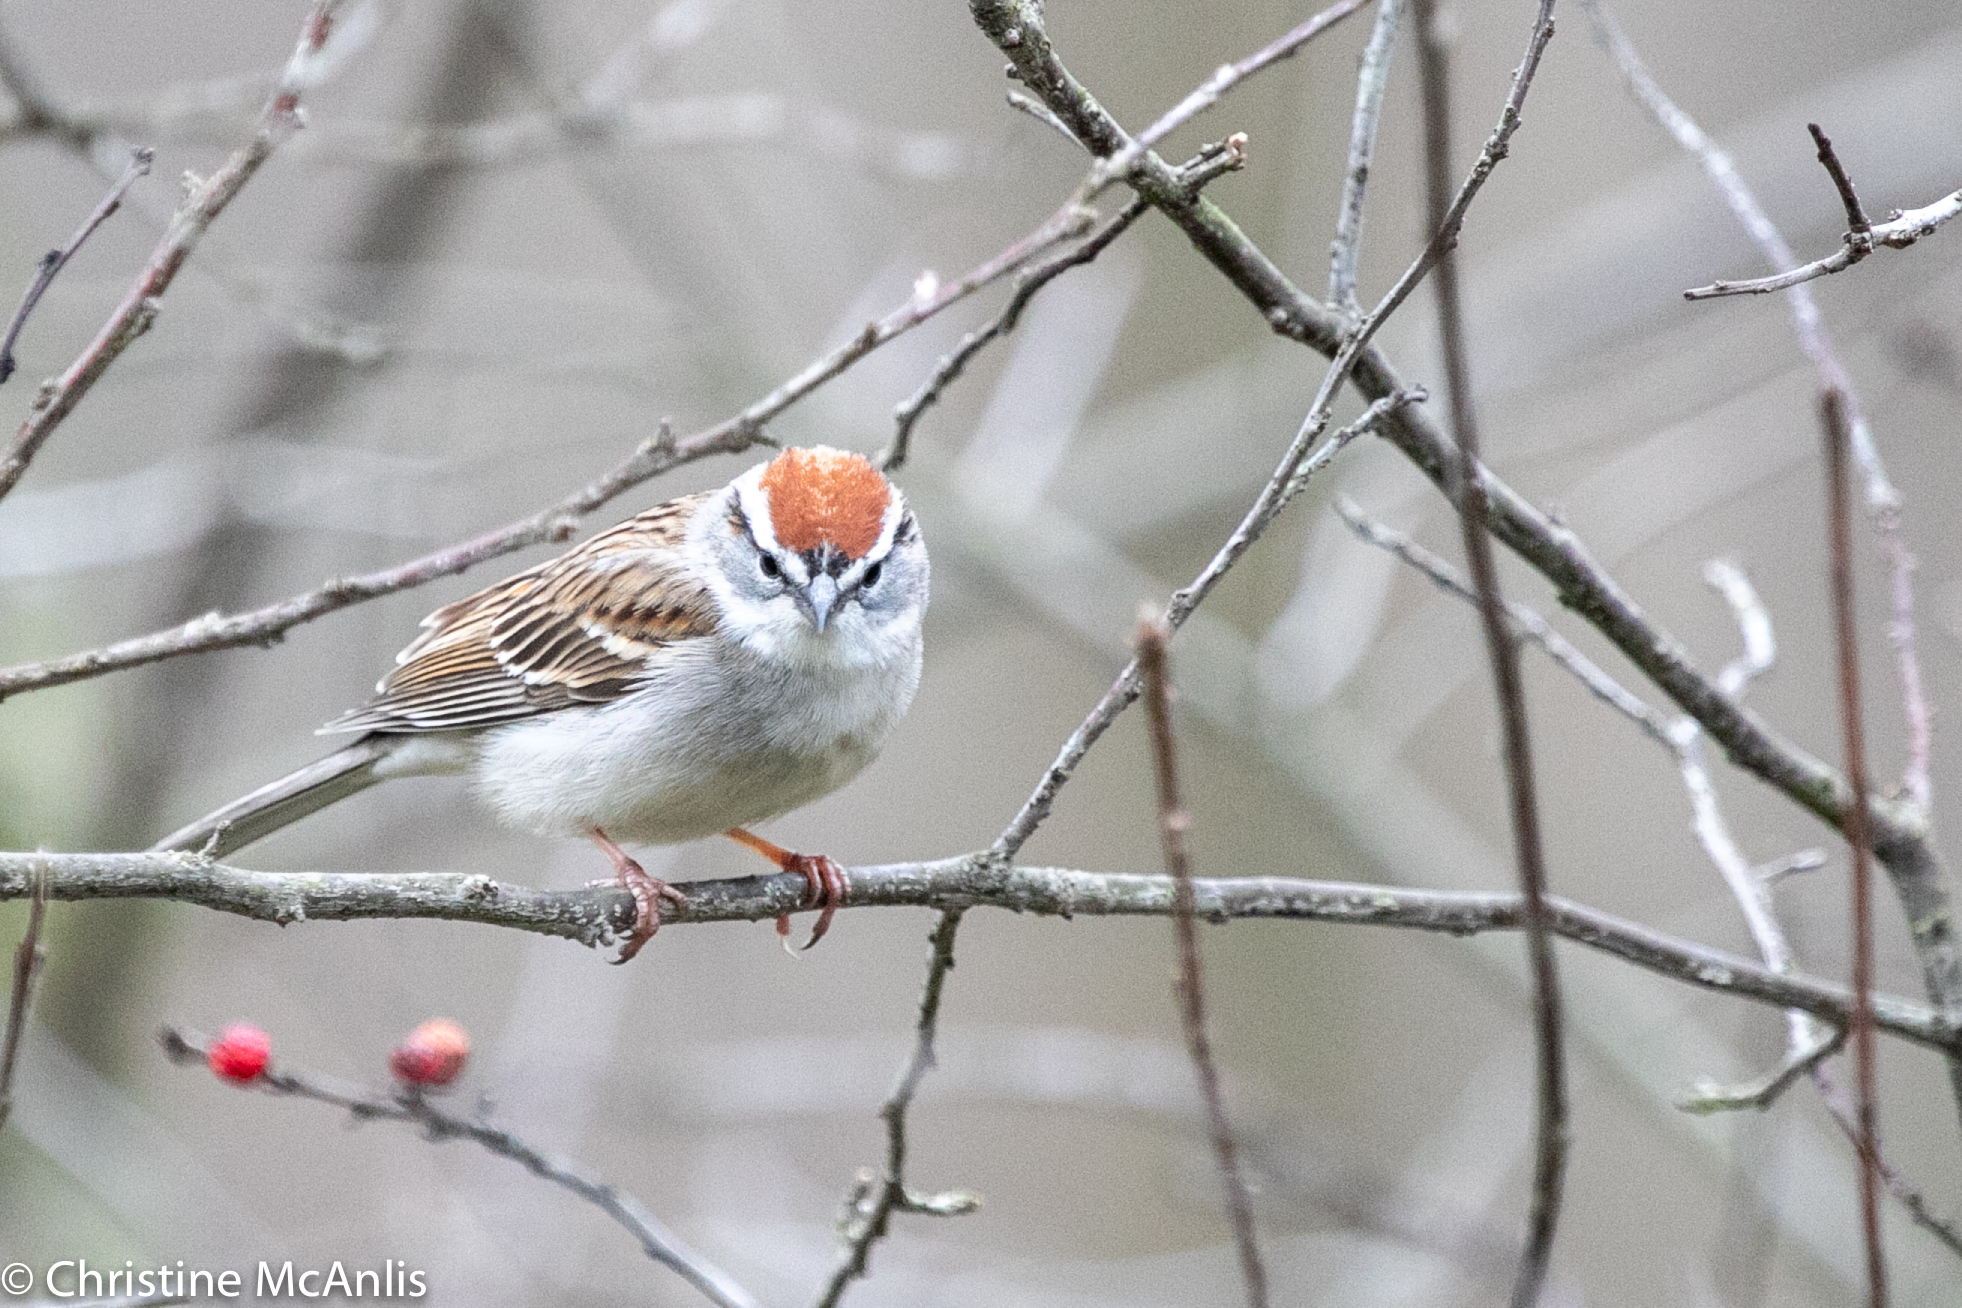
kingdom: Animalia
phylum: Chordata
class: Aves
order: Passeriformes
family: Passerellidae
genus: Spizella
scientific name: Spizella passerina
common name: Chipping sparrow
